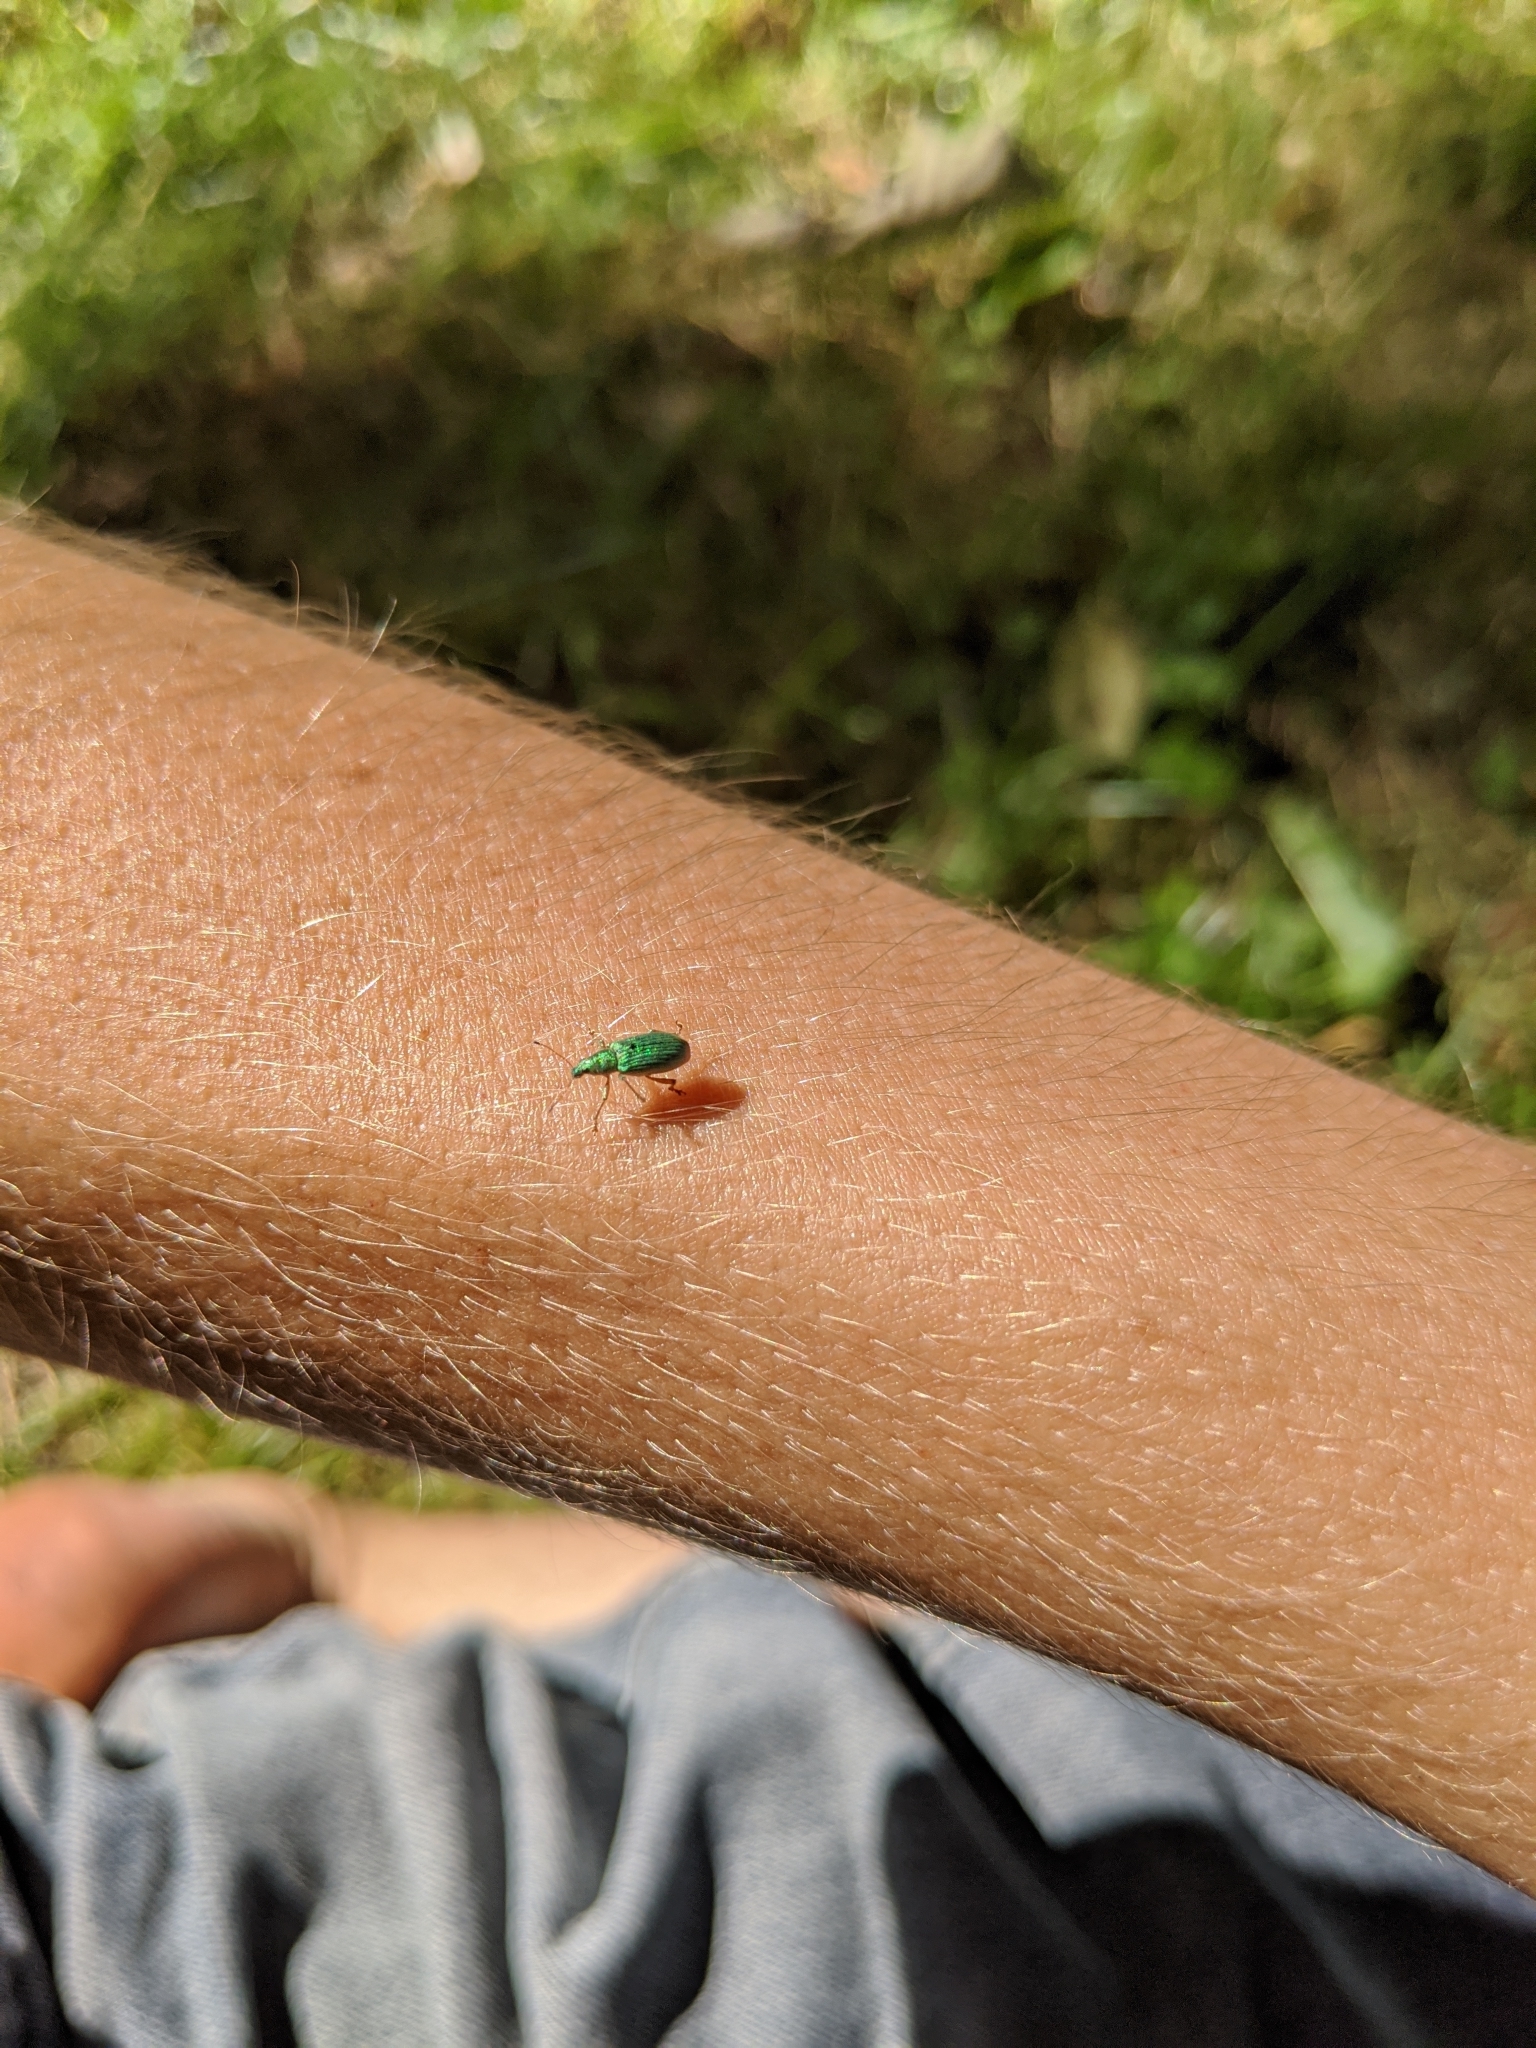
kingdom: Animalia
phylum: Arthropoda
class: Insecta
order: Coleoptera
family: Curculionidae
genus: Polydrusus
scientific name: Polydrusus formosus
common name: Weevil
